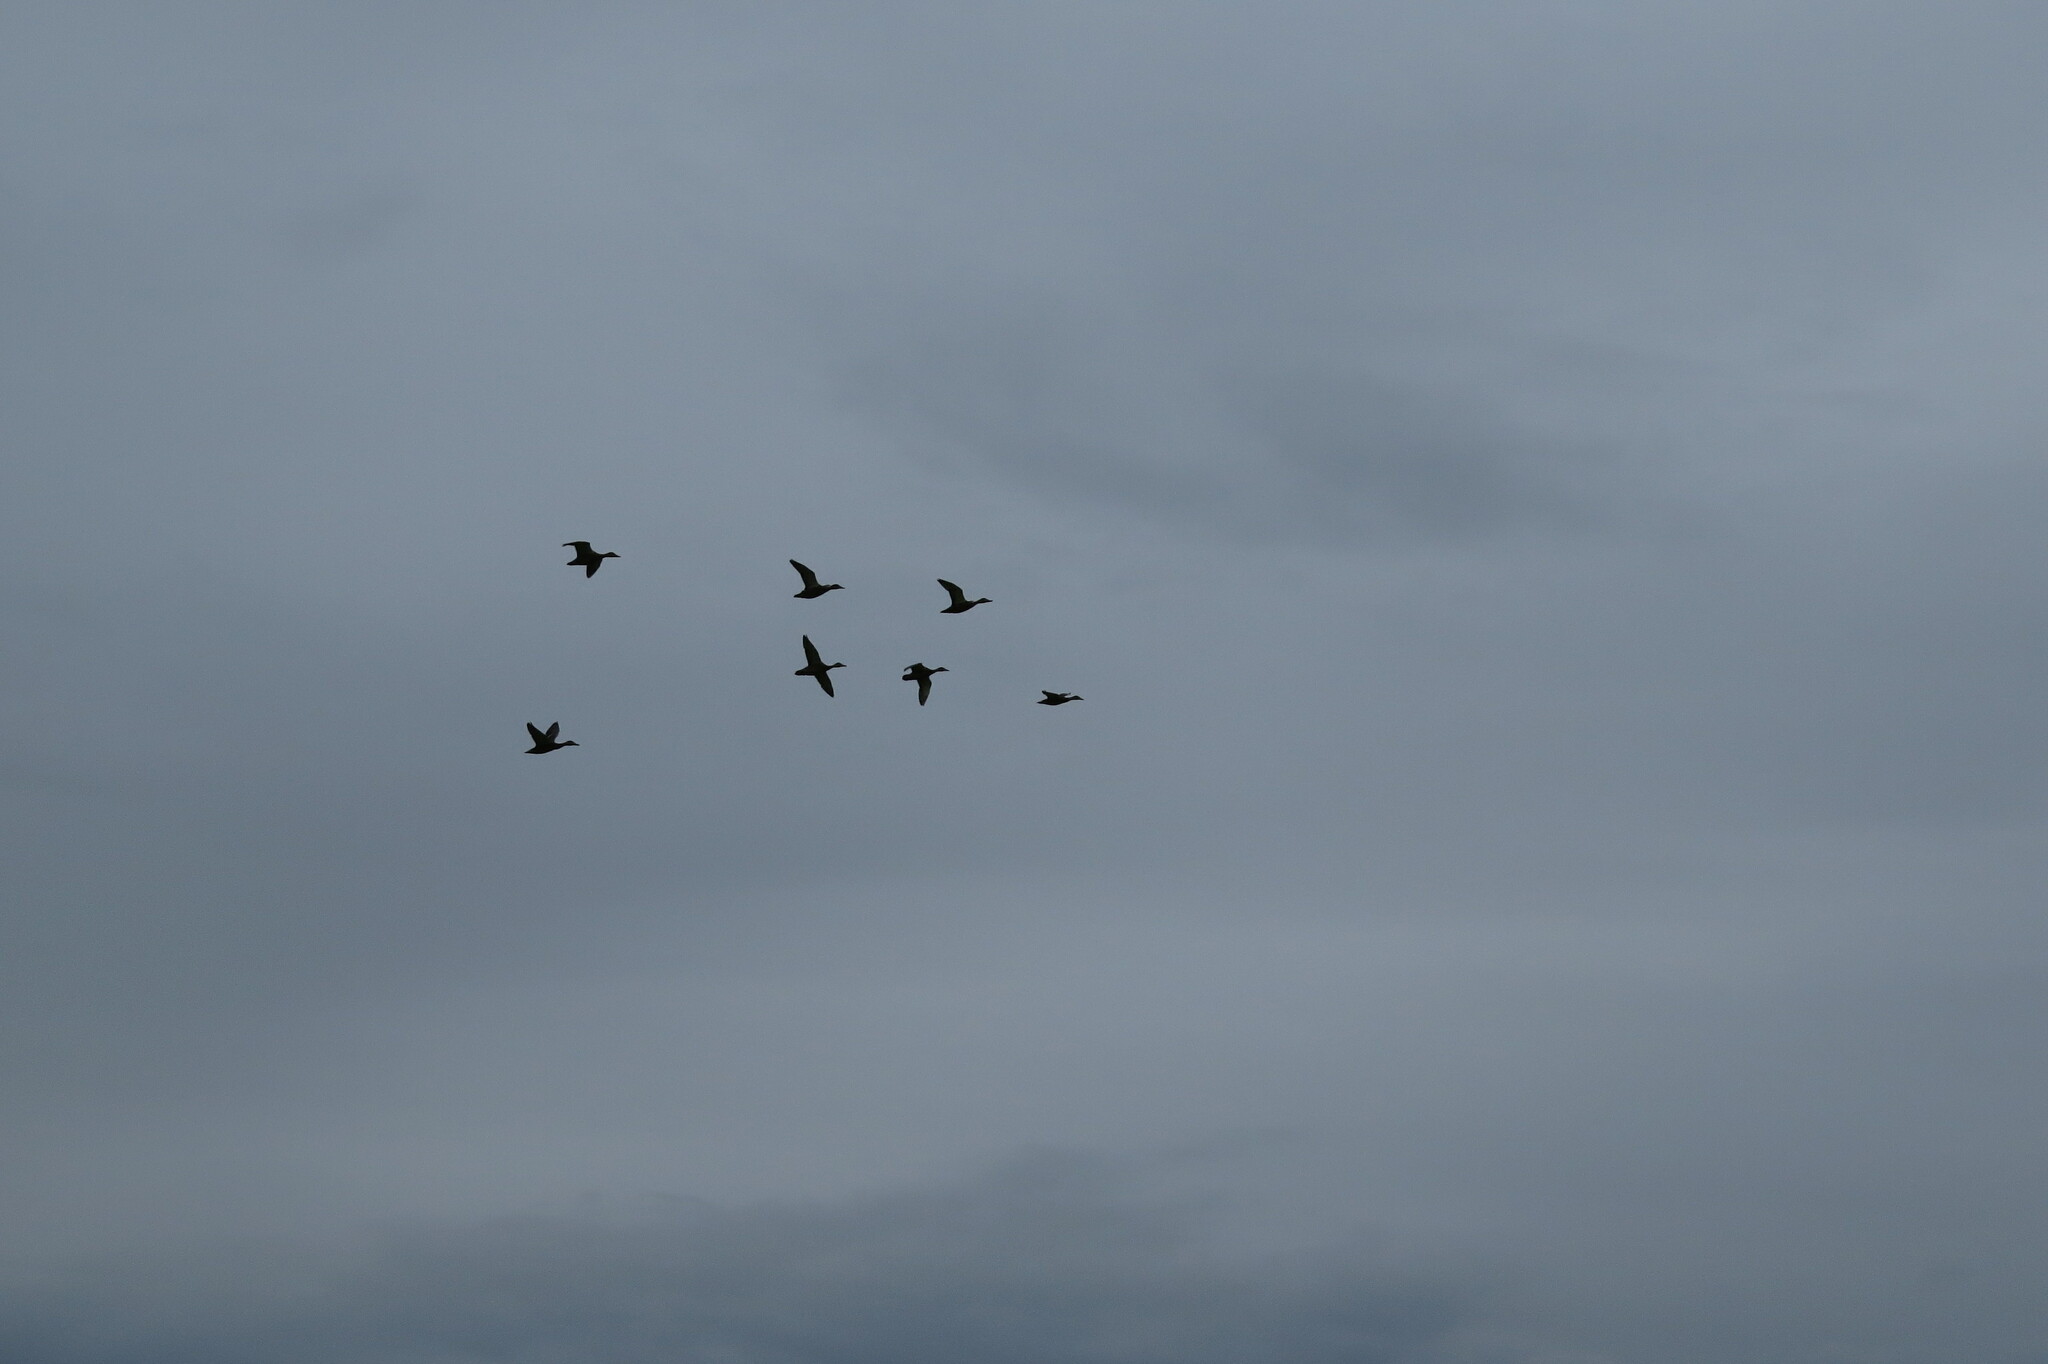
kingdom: Animalia
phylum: Chordata
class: Aves
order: Anseriformes
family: Anatidae
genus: Anas
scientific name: Anas platyrhynchos
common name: Mallard
